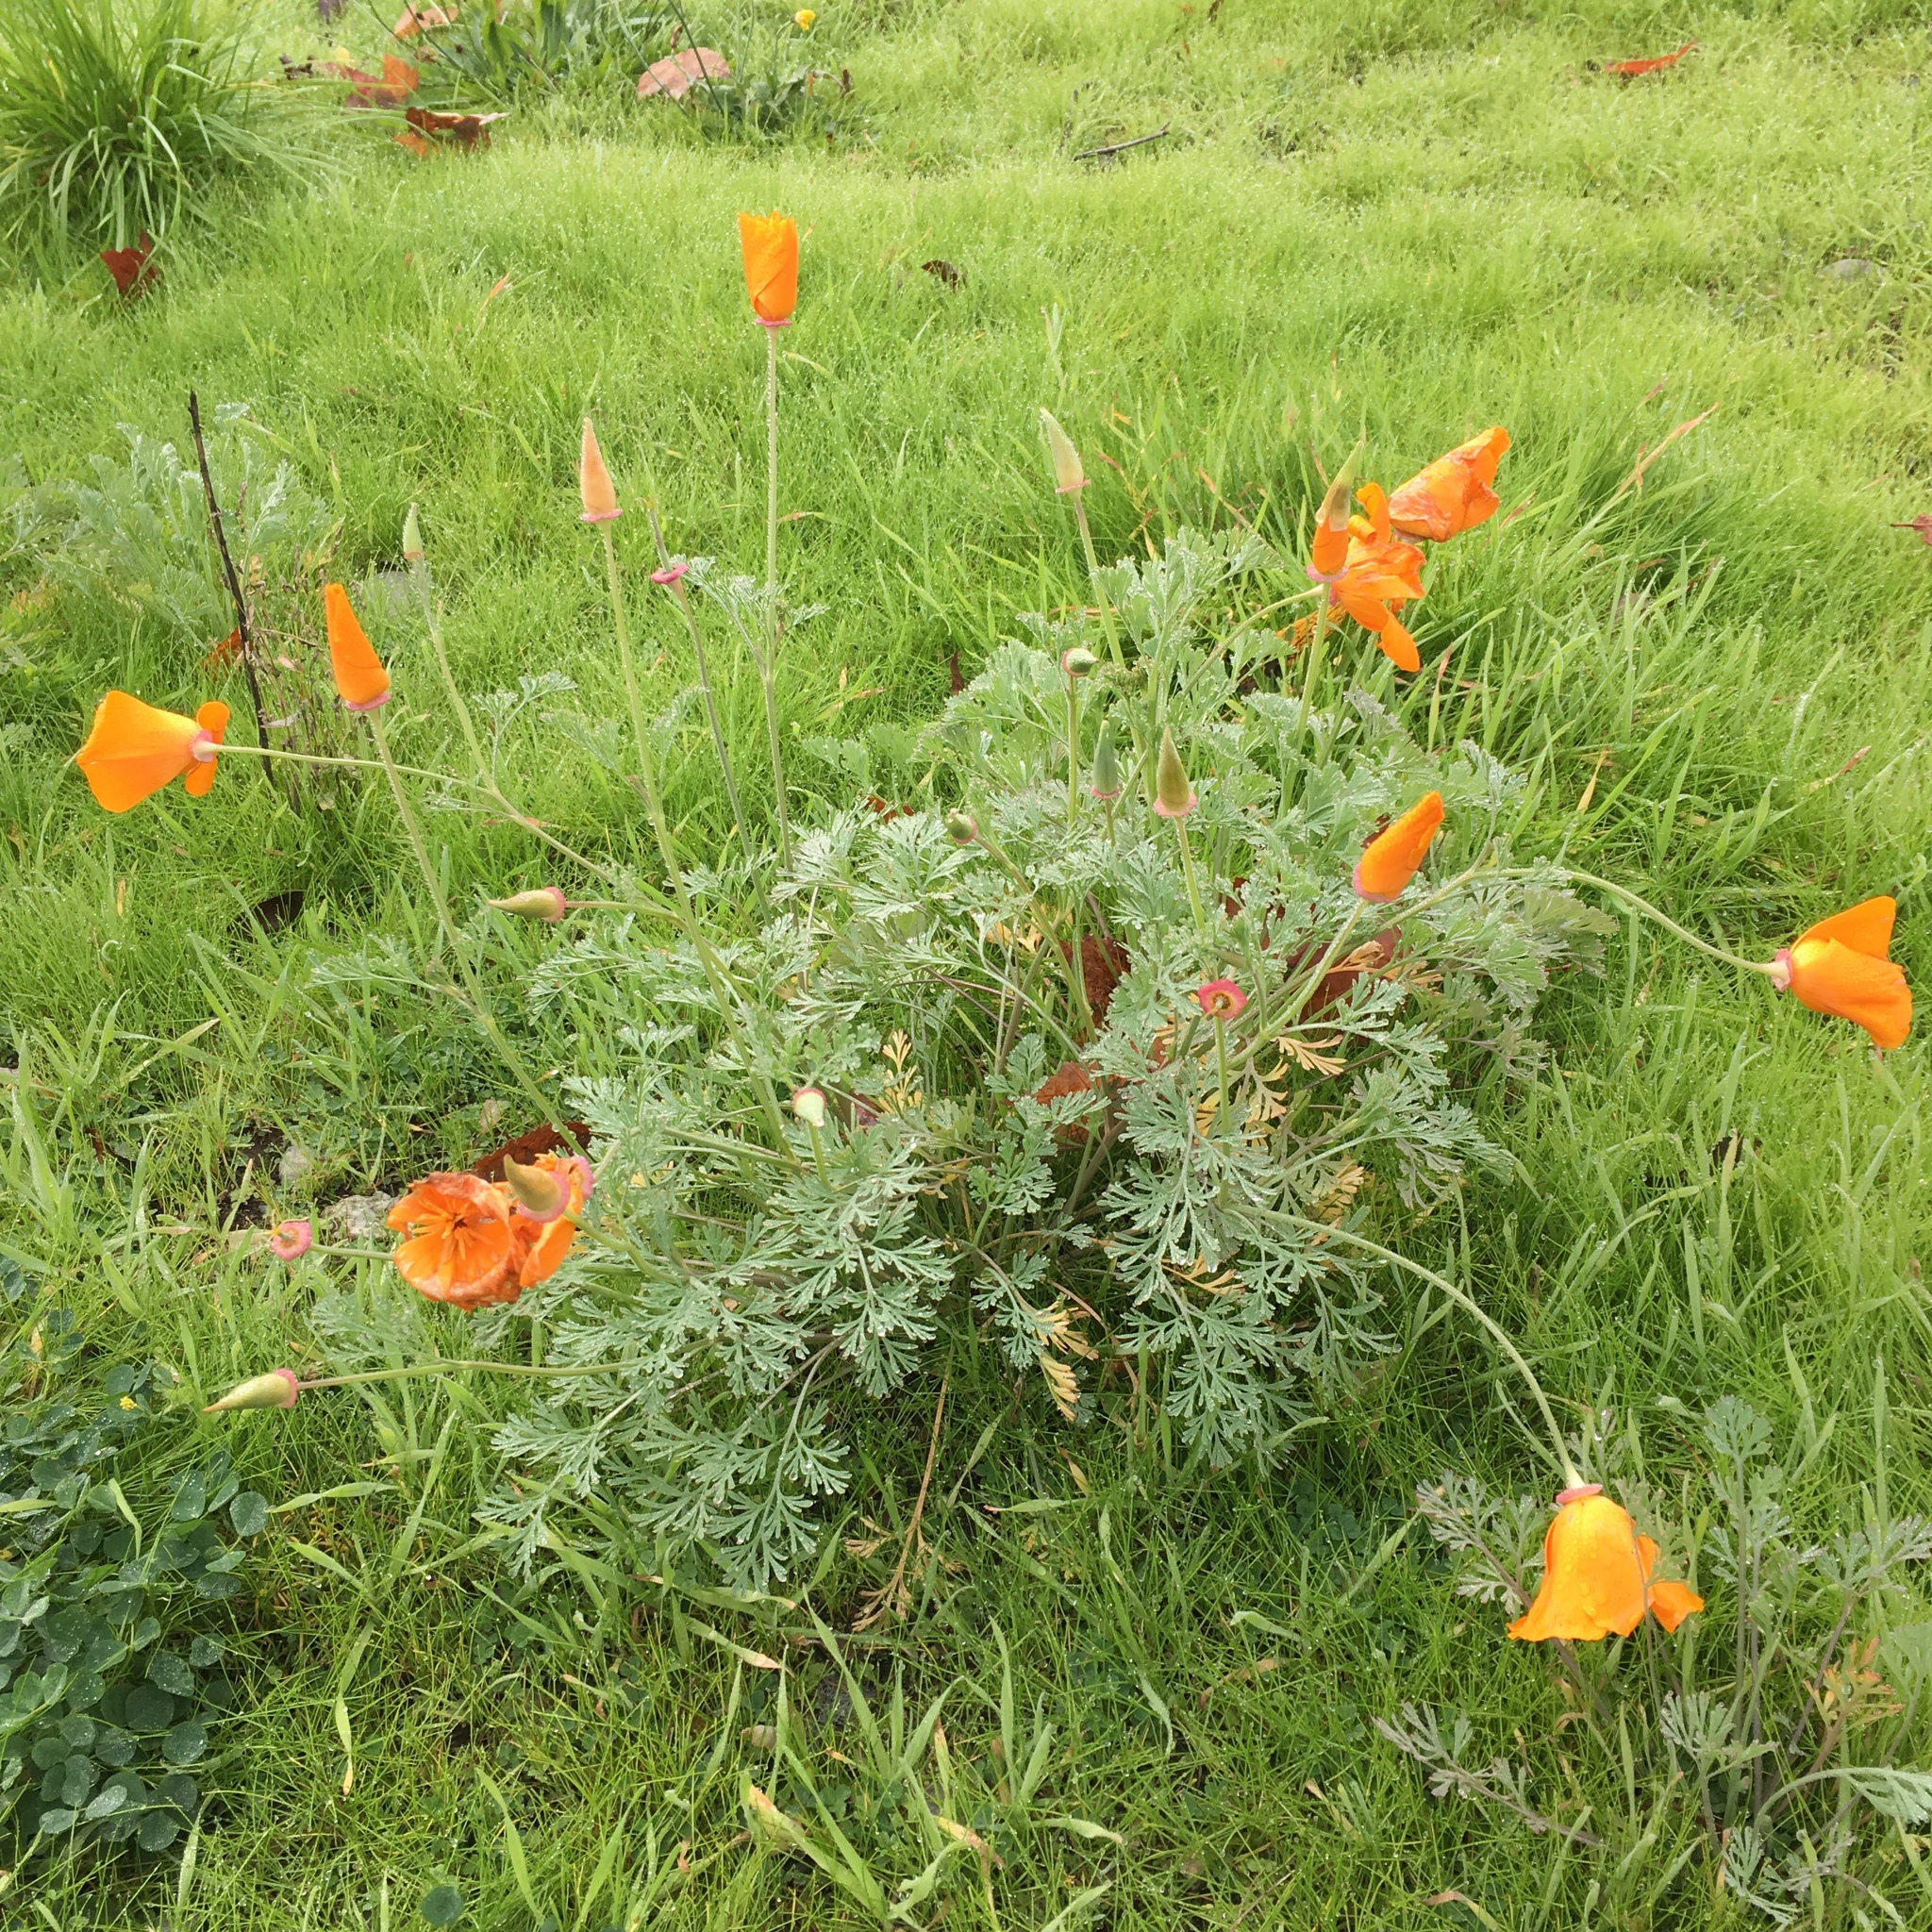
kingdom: Plantae
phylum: Tracheophyta
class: Magnoliopsida
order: Ranunculales
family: Papaveraceae
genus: Eschscholzia
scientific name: Eschscholzia californica
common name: California poppy
